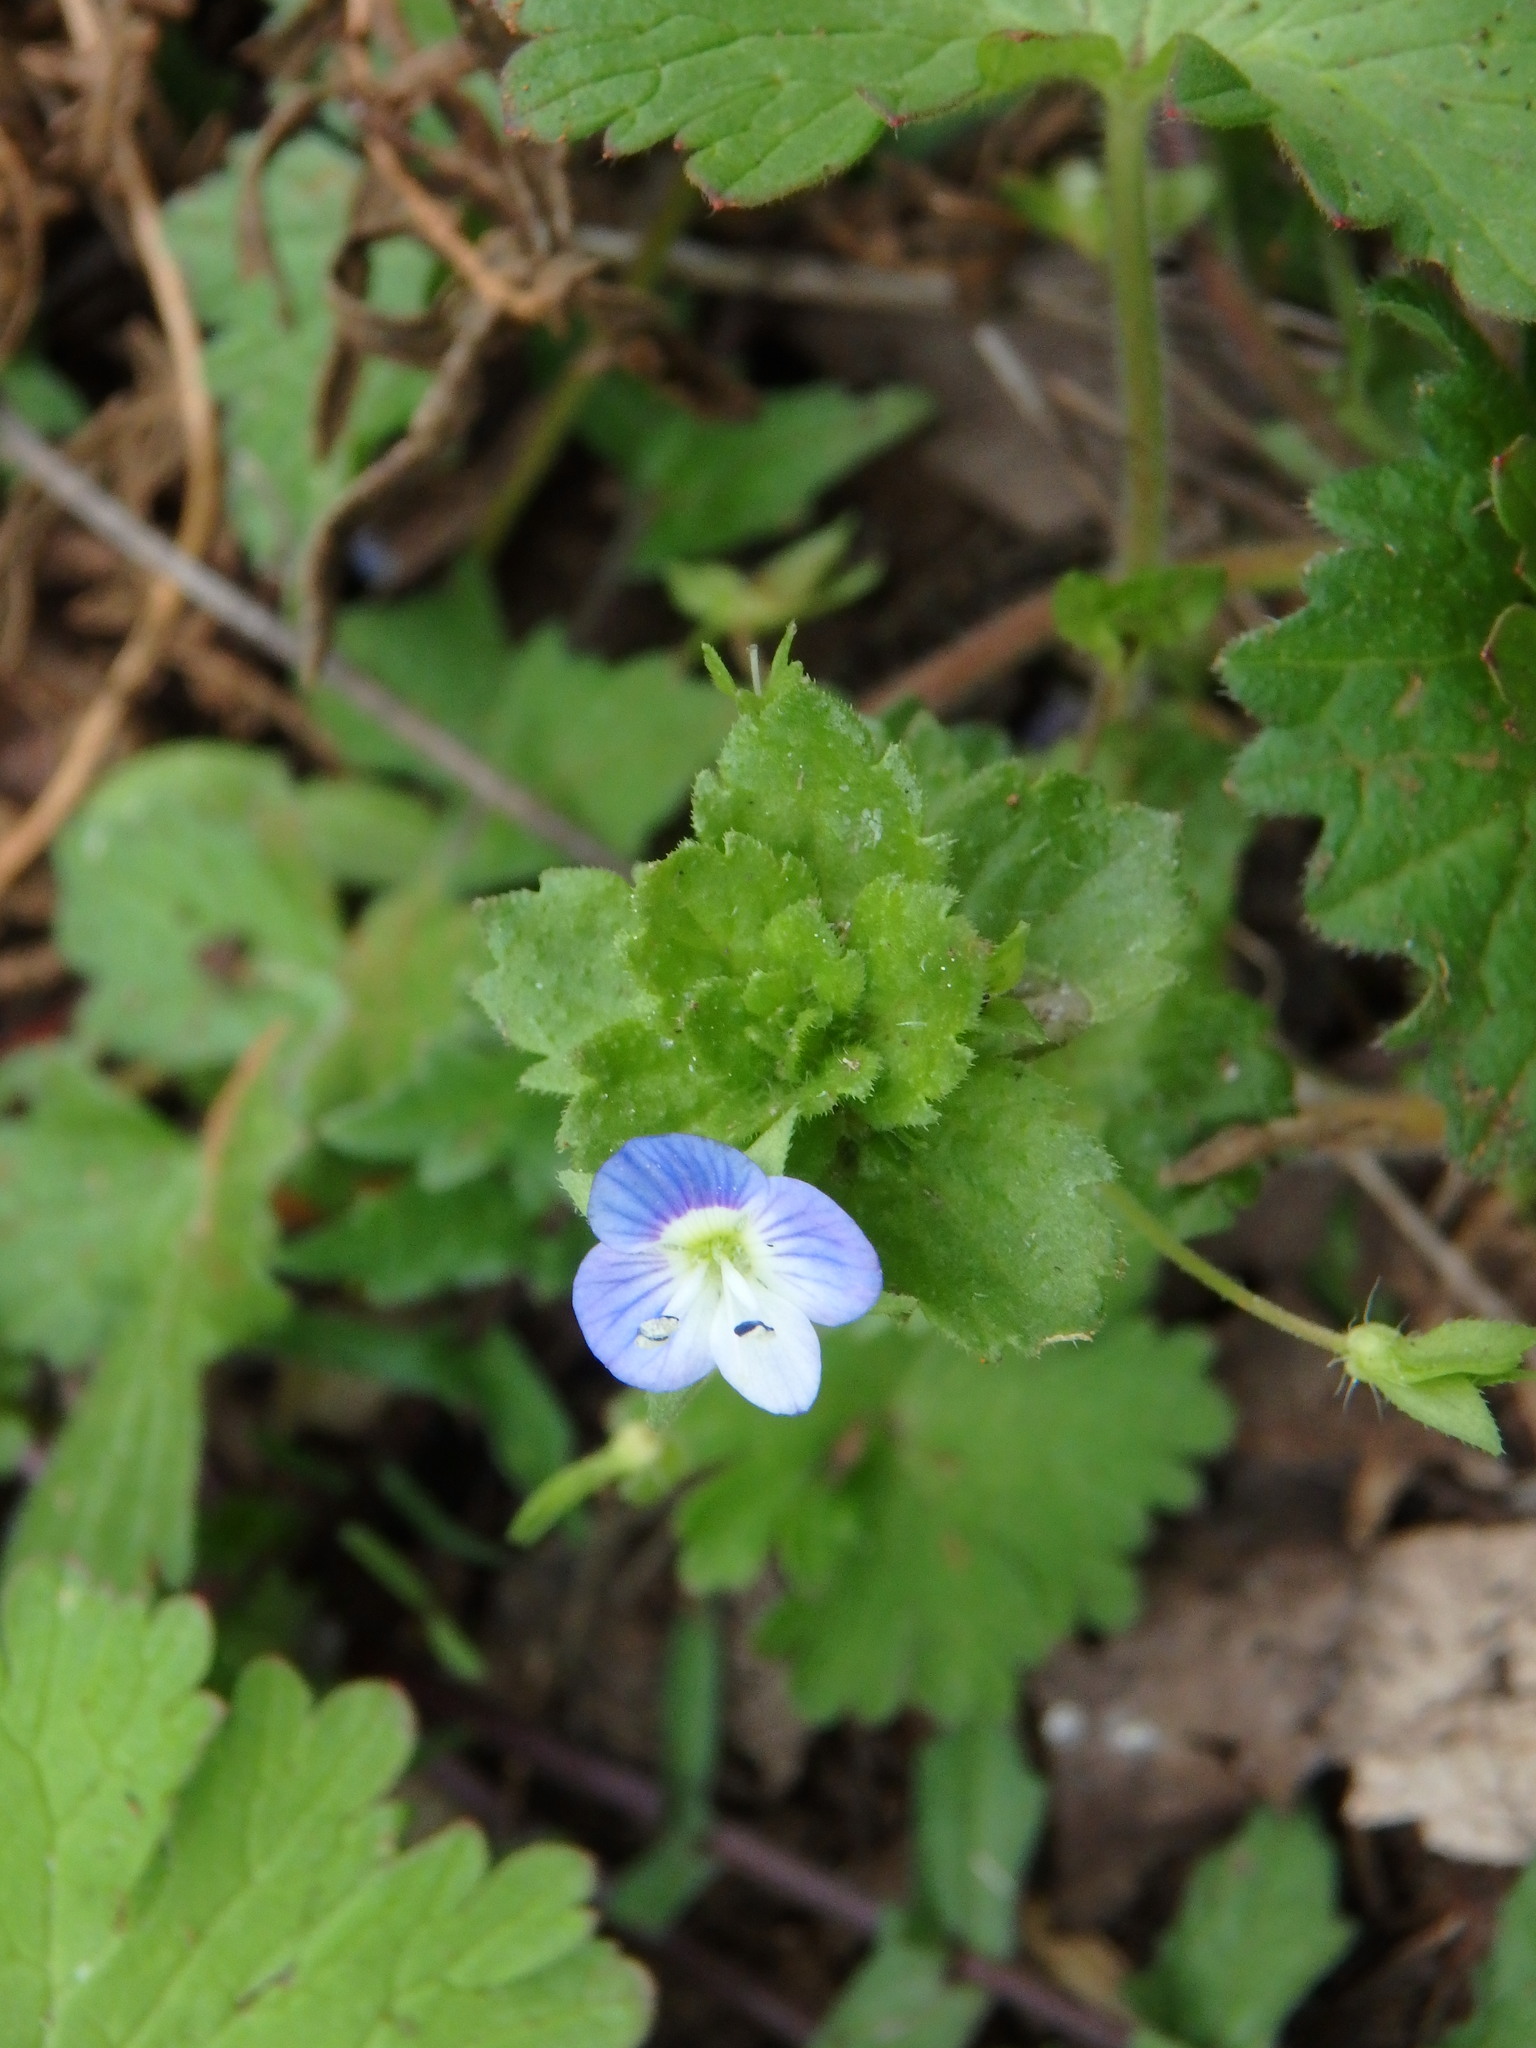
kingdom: Plantae
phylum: Tracheophyta
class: Magnoliopsida
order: Lamiales
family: Plantaginaceae
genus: Veronica
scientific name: Veronica persica
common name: Common field-speedwell
